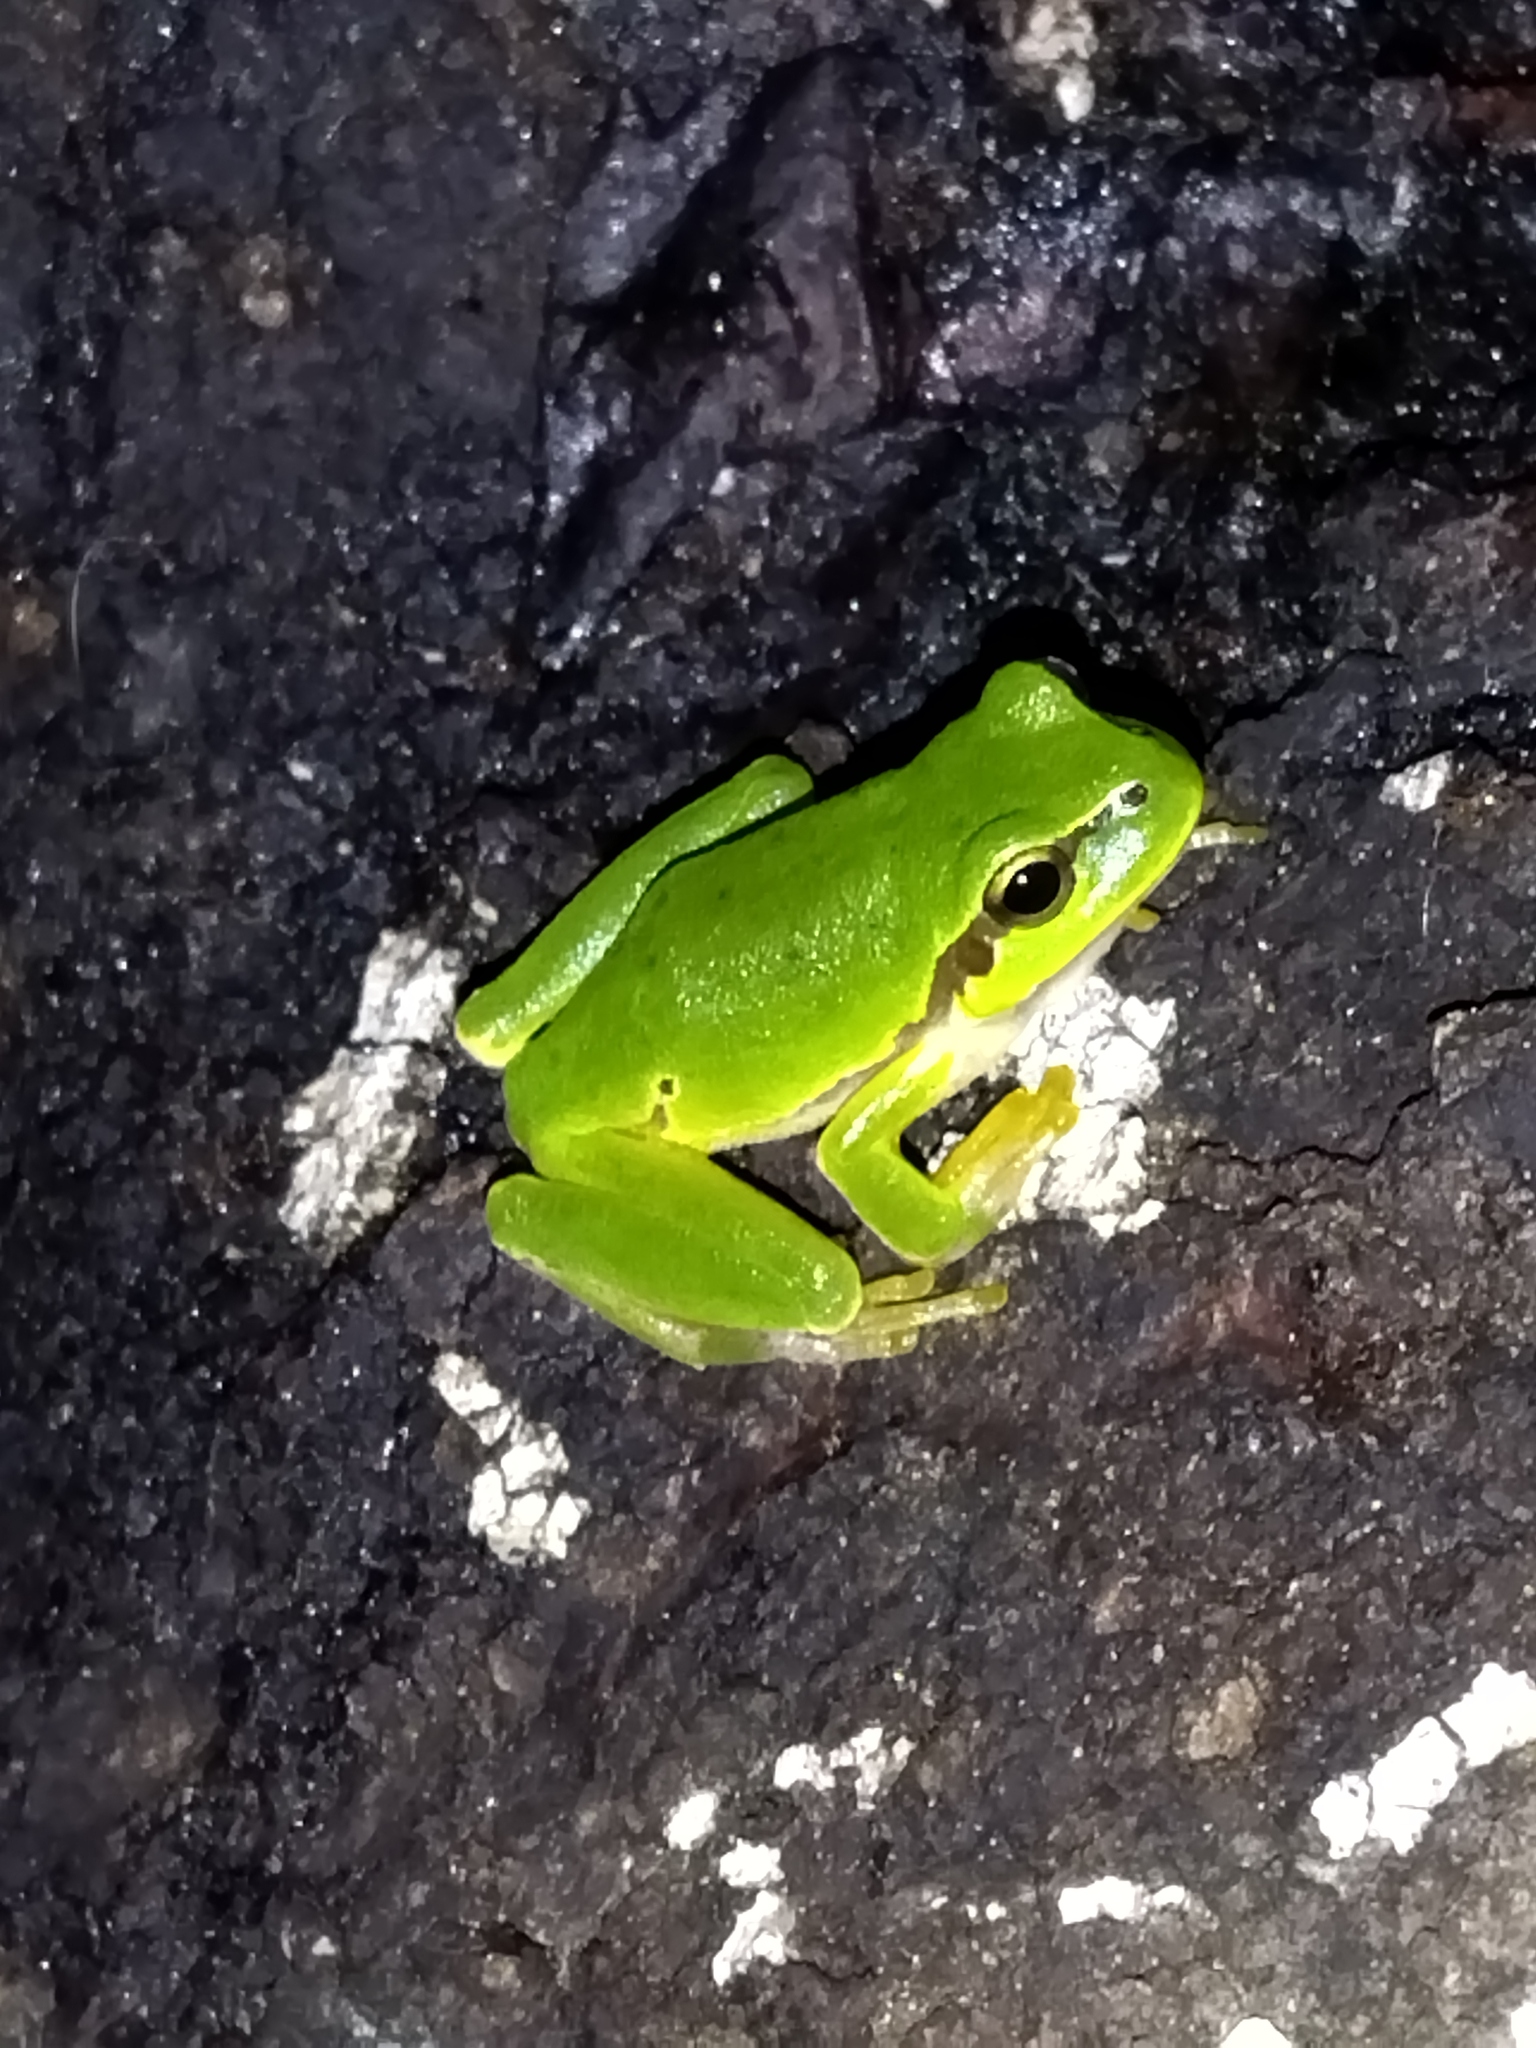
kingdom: Animalia
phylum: Chordata
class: Amphibia
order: Anura
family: Hylidae
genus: Hyla
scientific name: Hyla orientalis
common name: Caucasian treefrog
